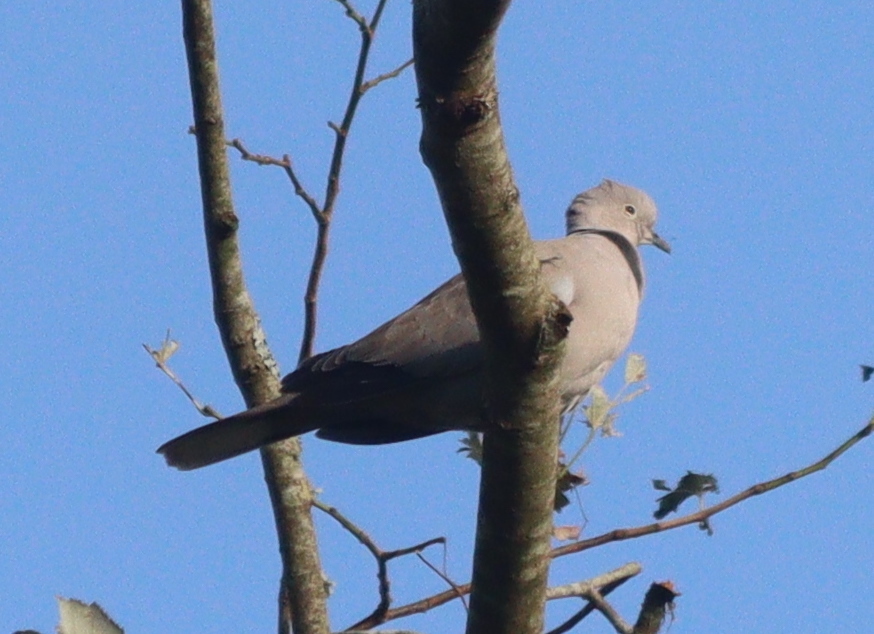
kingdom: Animalia
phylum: Chordata
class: Aves
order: Columbiformes
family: Columbidae
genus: Streptopelia
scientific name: Streptopelia decaocto
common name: Eurasian collared dove
